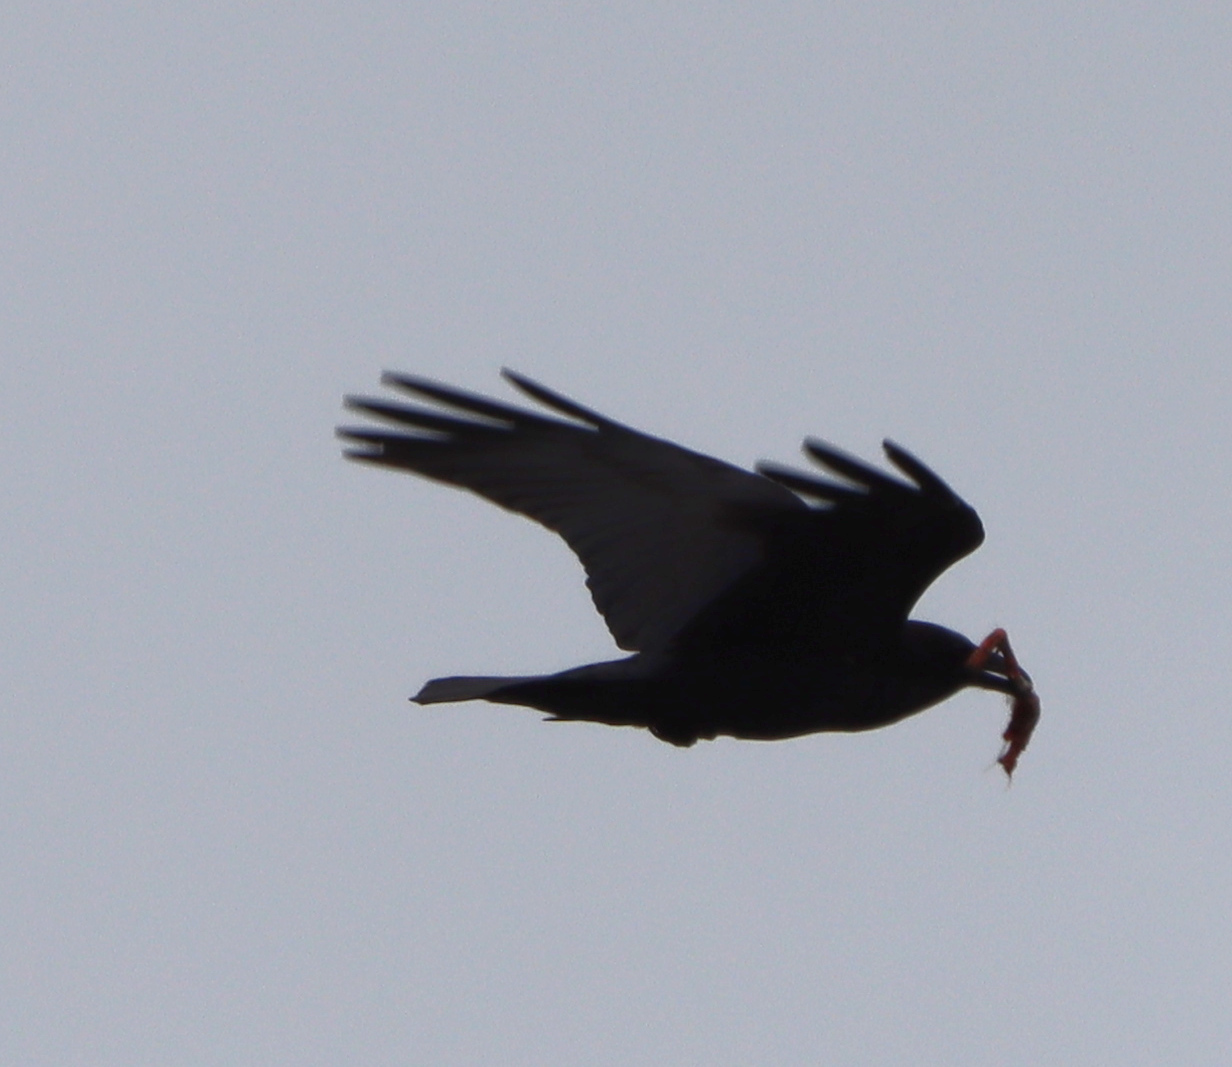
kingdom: Animalia
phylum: Chordata
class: Aves
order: Passeriformes
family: Corvidae
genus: Corvus
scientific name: Corvus brachyrhynchos
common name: American crow
